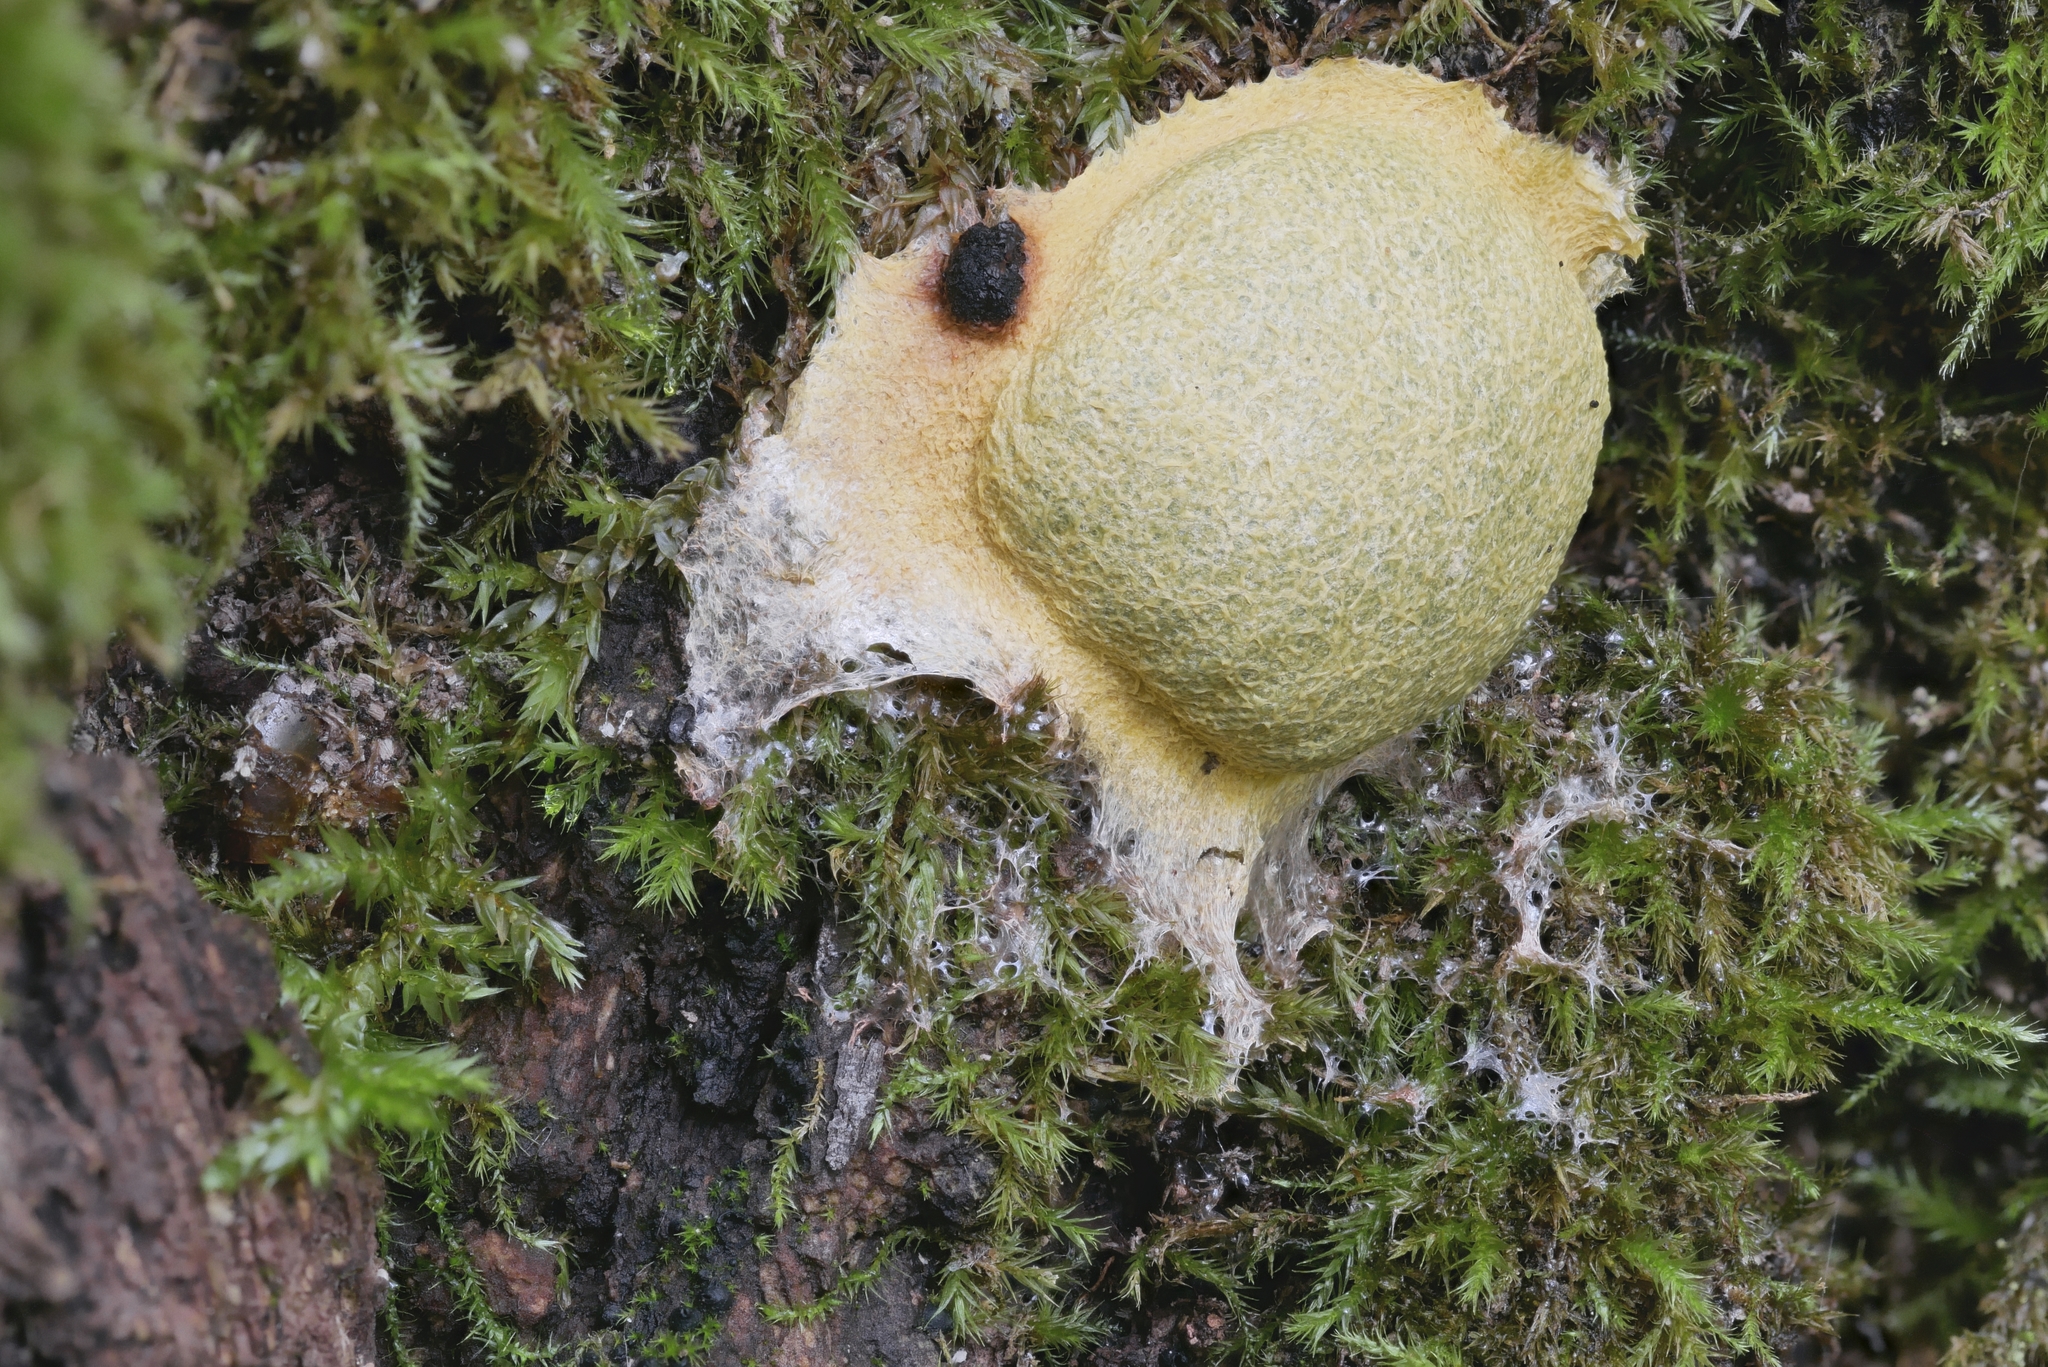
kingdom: Protozoa
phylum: Mycetozoa
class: Myxomycetes
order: Physarales
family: Physaraceae
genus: Fuligo
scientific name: Fuligo septica
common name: Dog vomit slime mold
